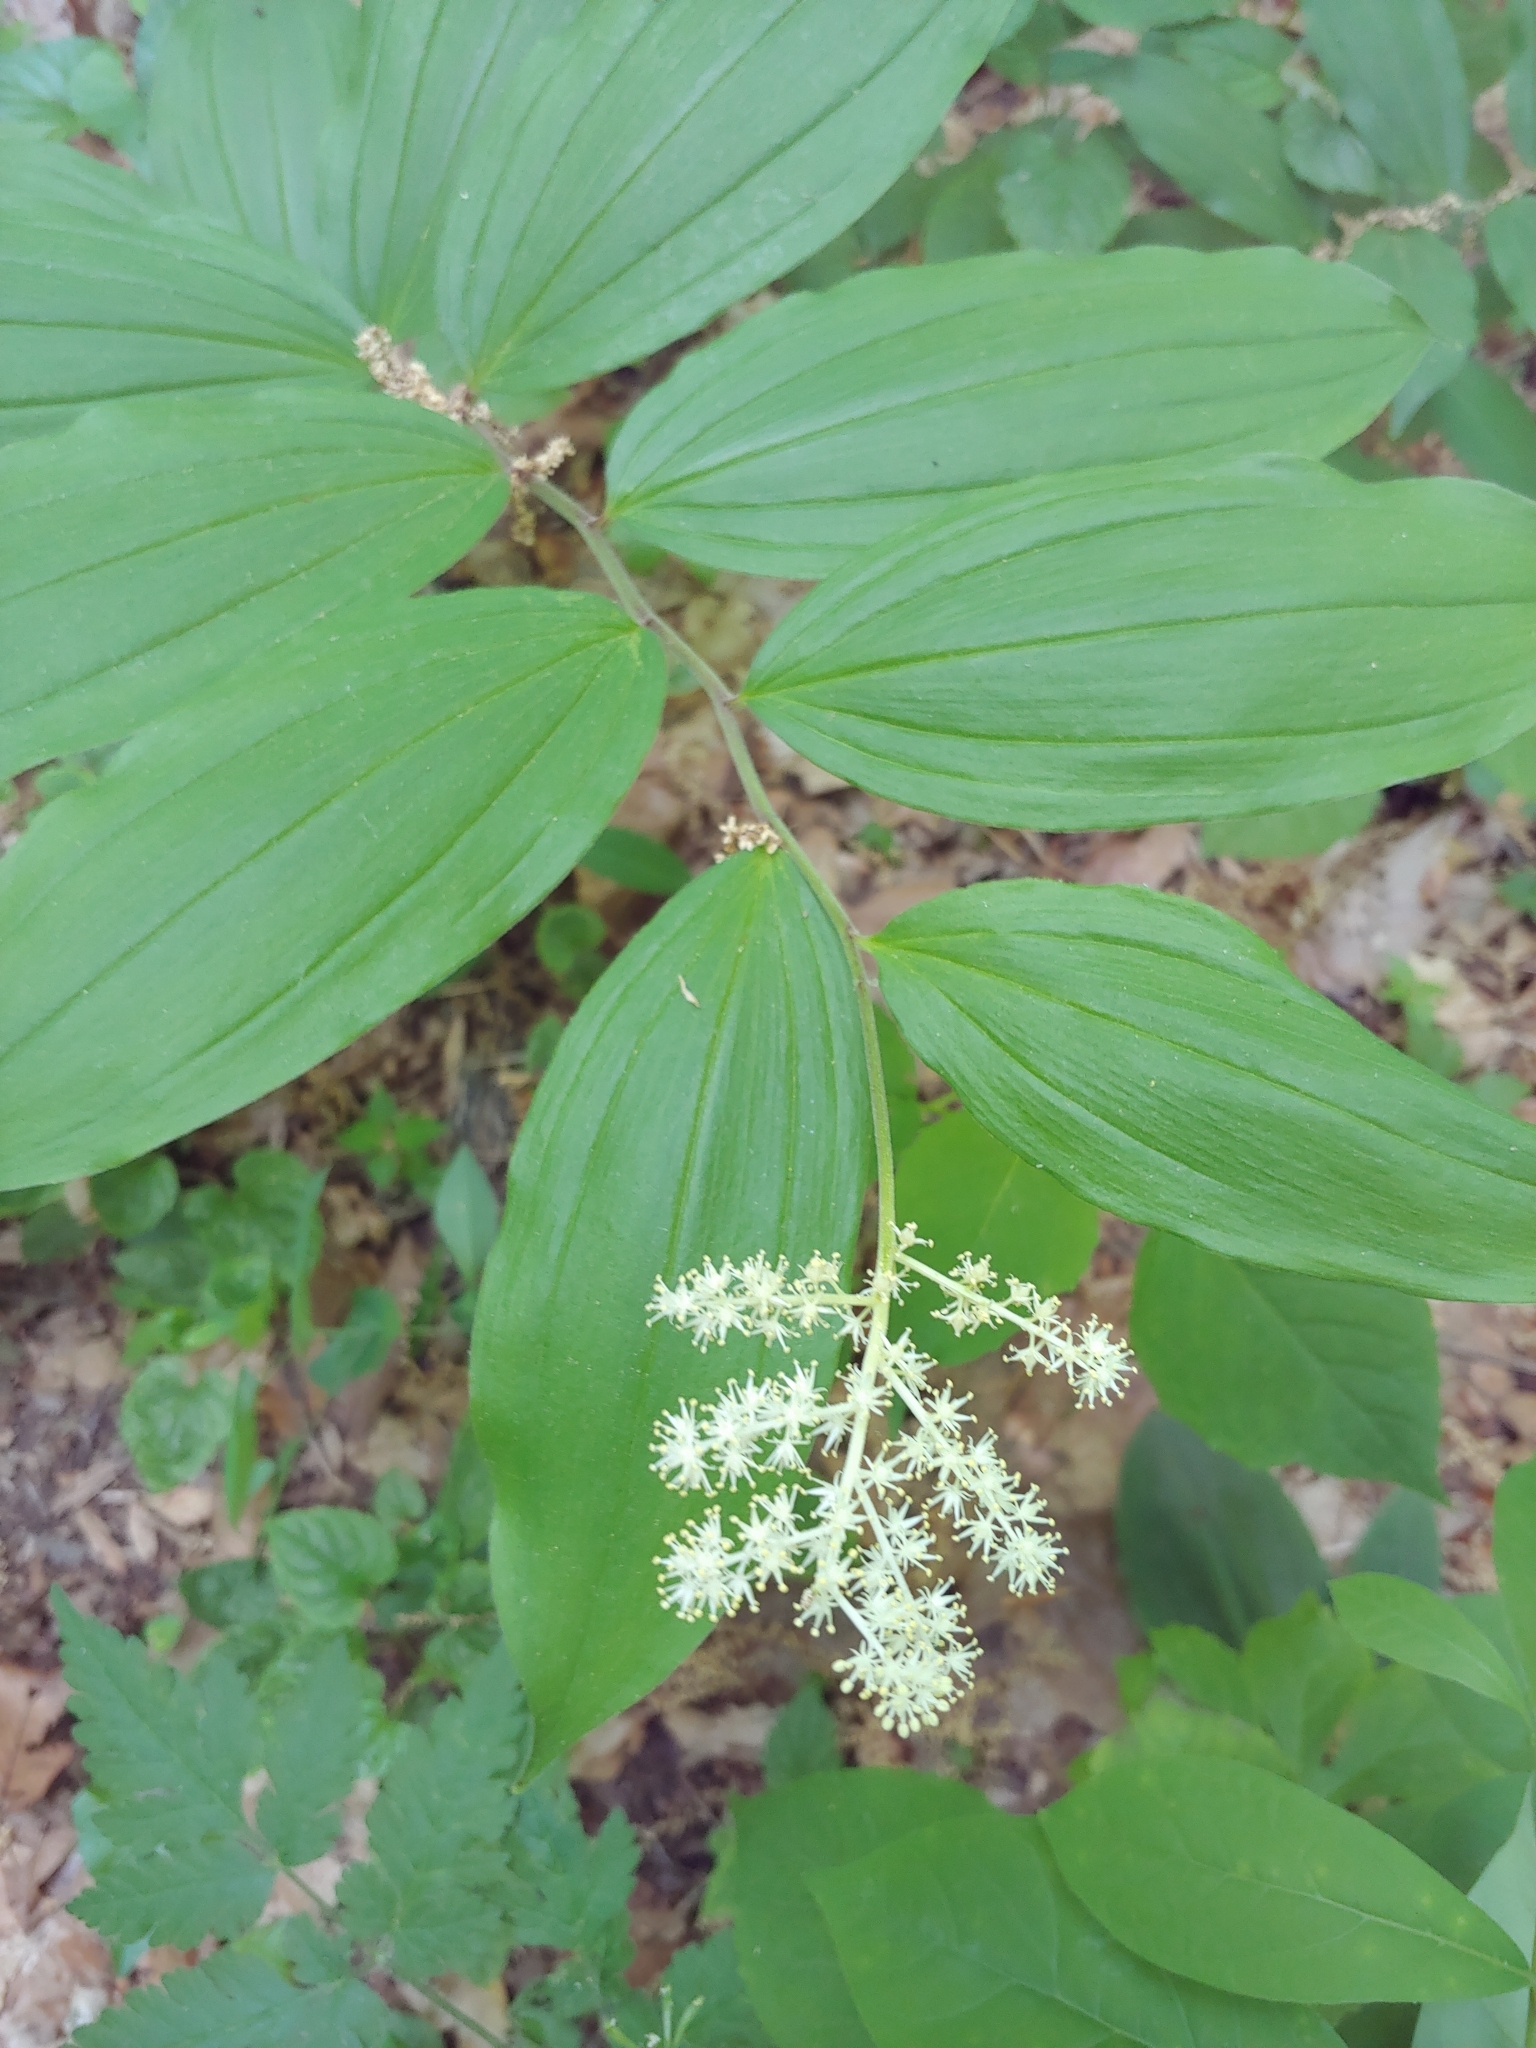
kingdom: Plantae
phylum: Tracheophyta
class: Liliopsida
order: Asparagales
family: Asparagaceae
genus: Maianthemum
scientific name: Maianthemum racemosum
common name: False spikenard
